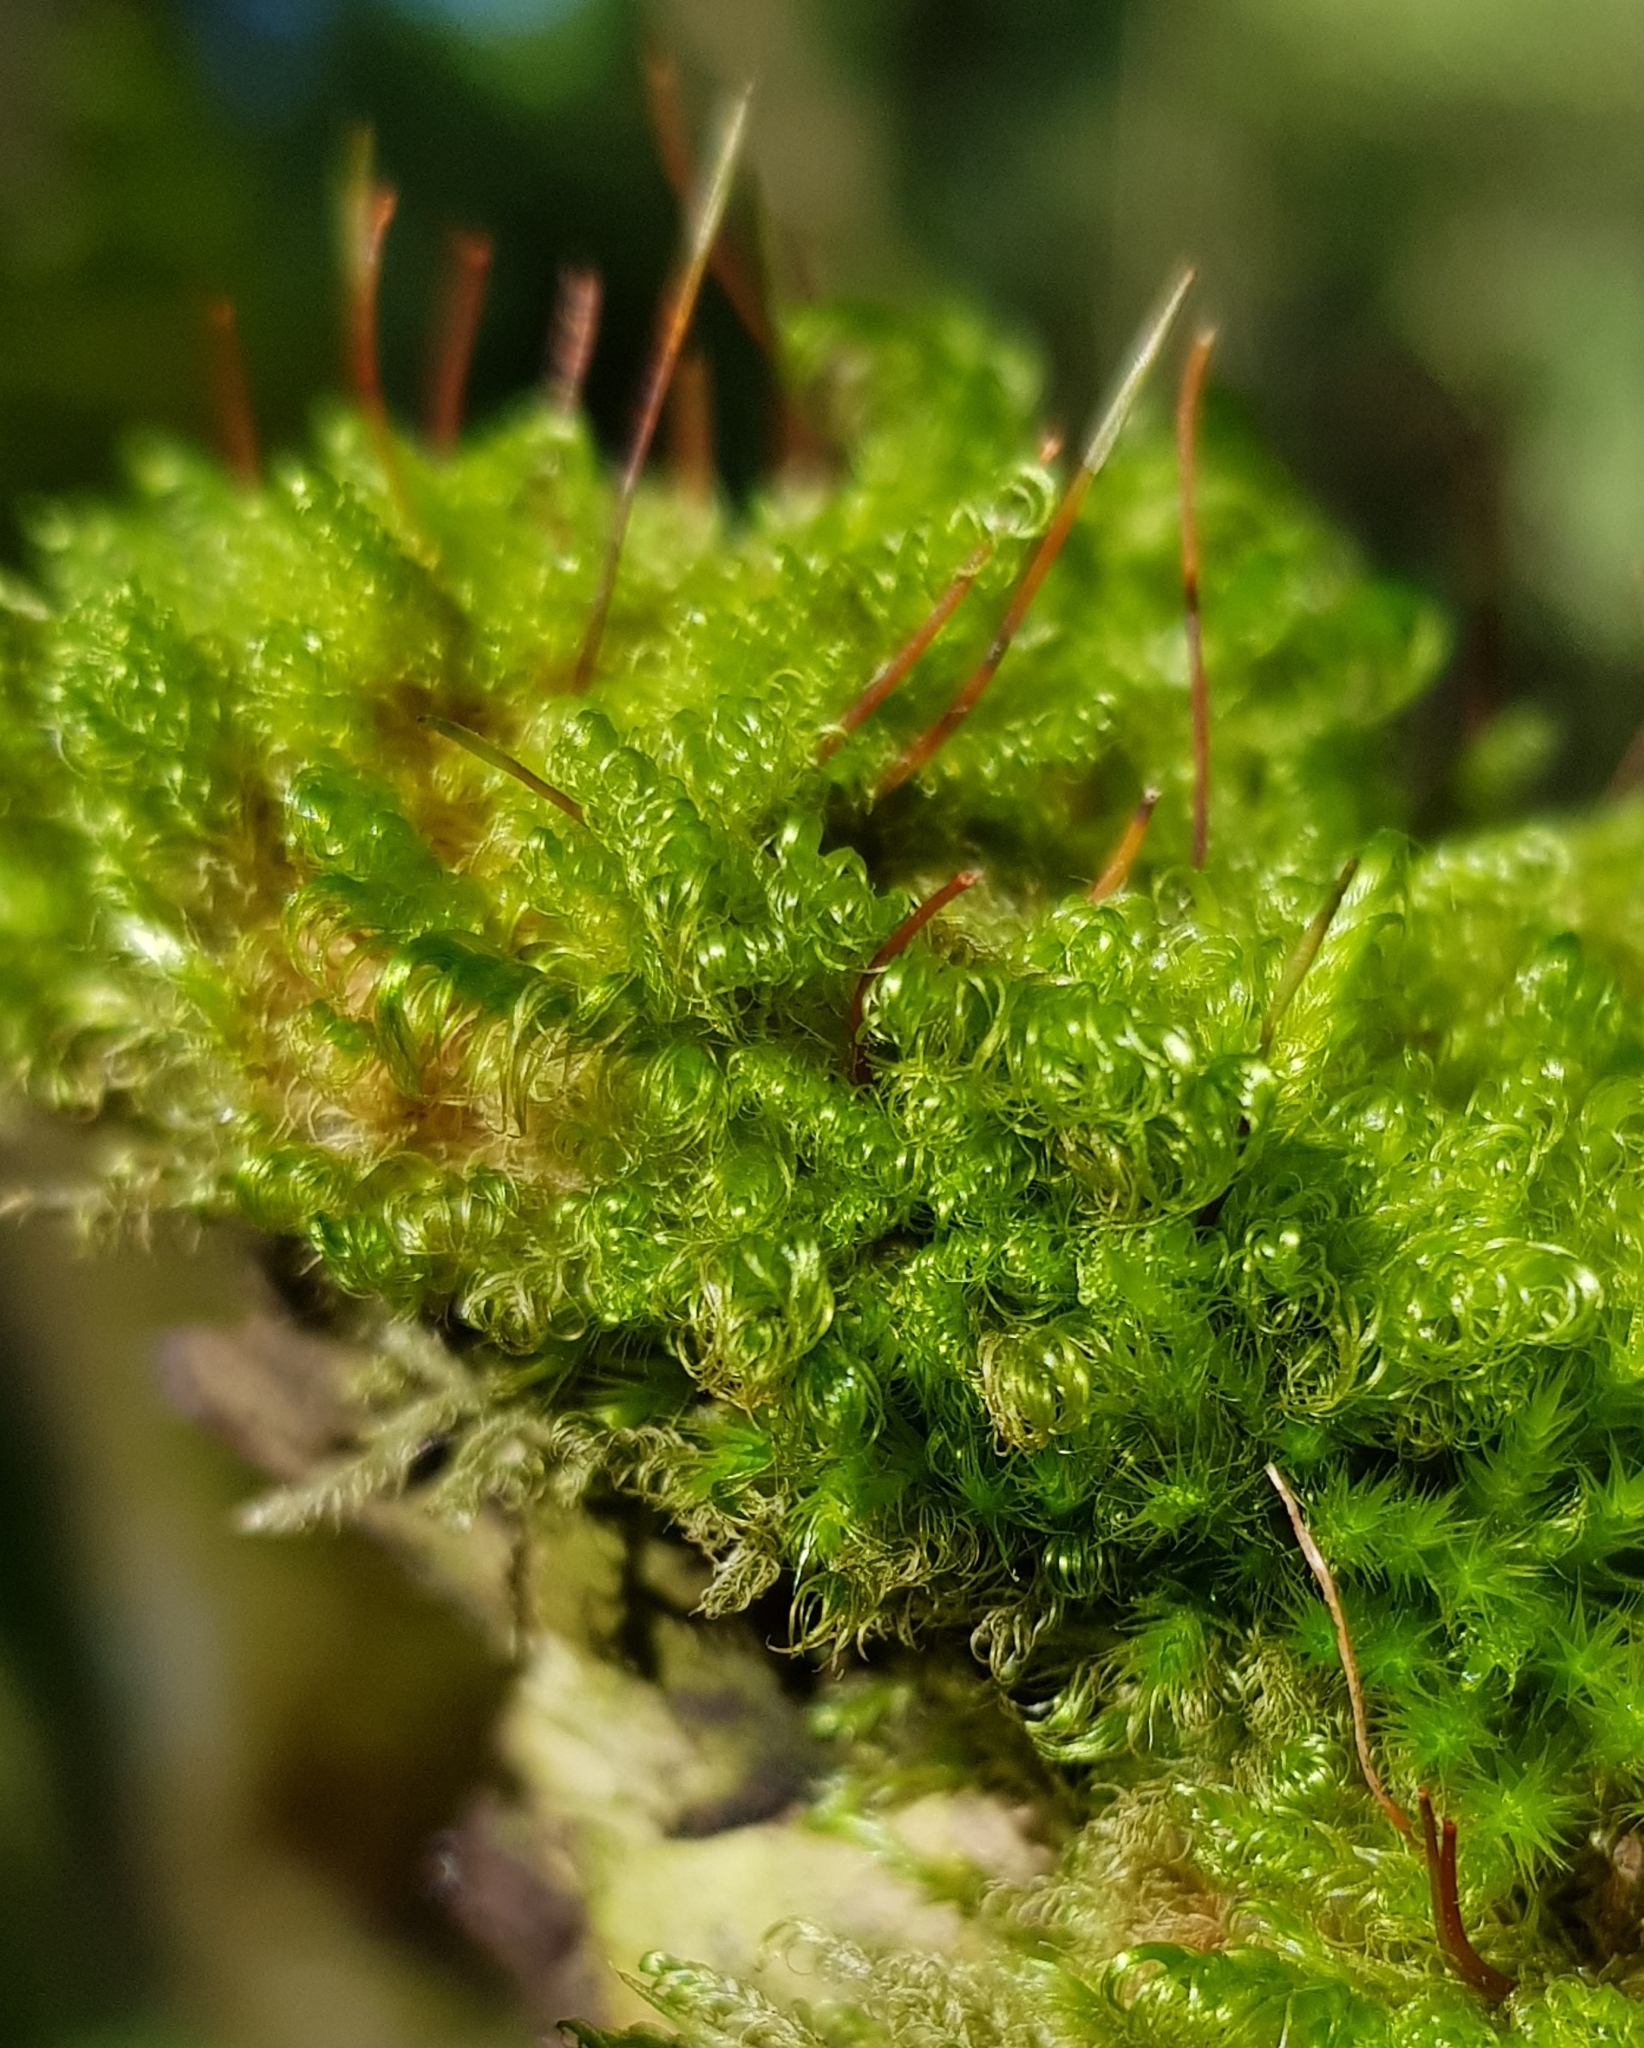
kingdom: Plantae
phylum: Bryophyta
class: Bryopsida
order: Hypnales
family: Scorpidiaceae
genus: Sanionia
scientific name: Sanionia uncinata
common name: Sickle moss
